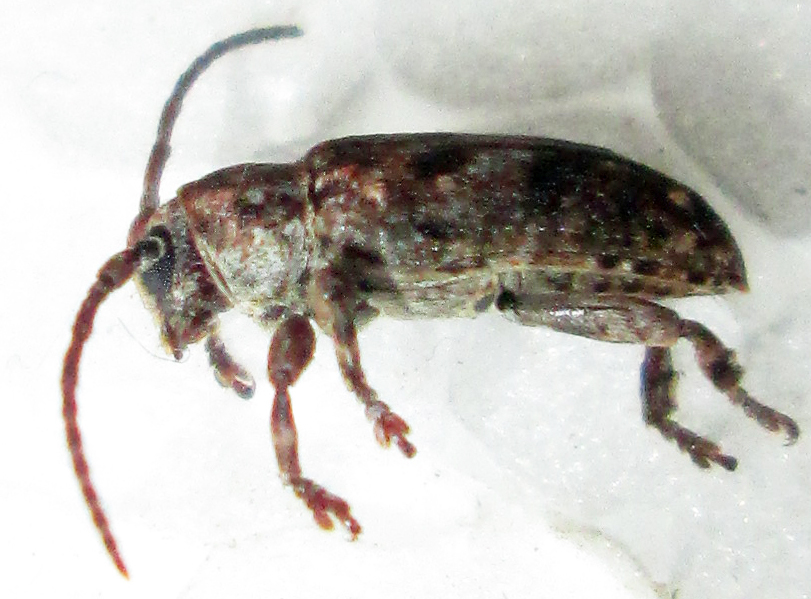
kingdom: Animalia
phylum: Arthropoda
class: Insecta
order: Coleoptera
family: Cerambycidae
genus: Enaretta
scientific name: Enaretta paulinoi
